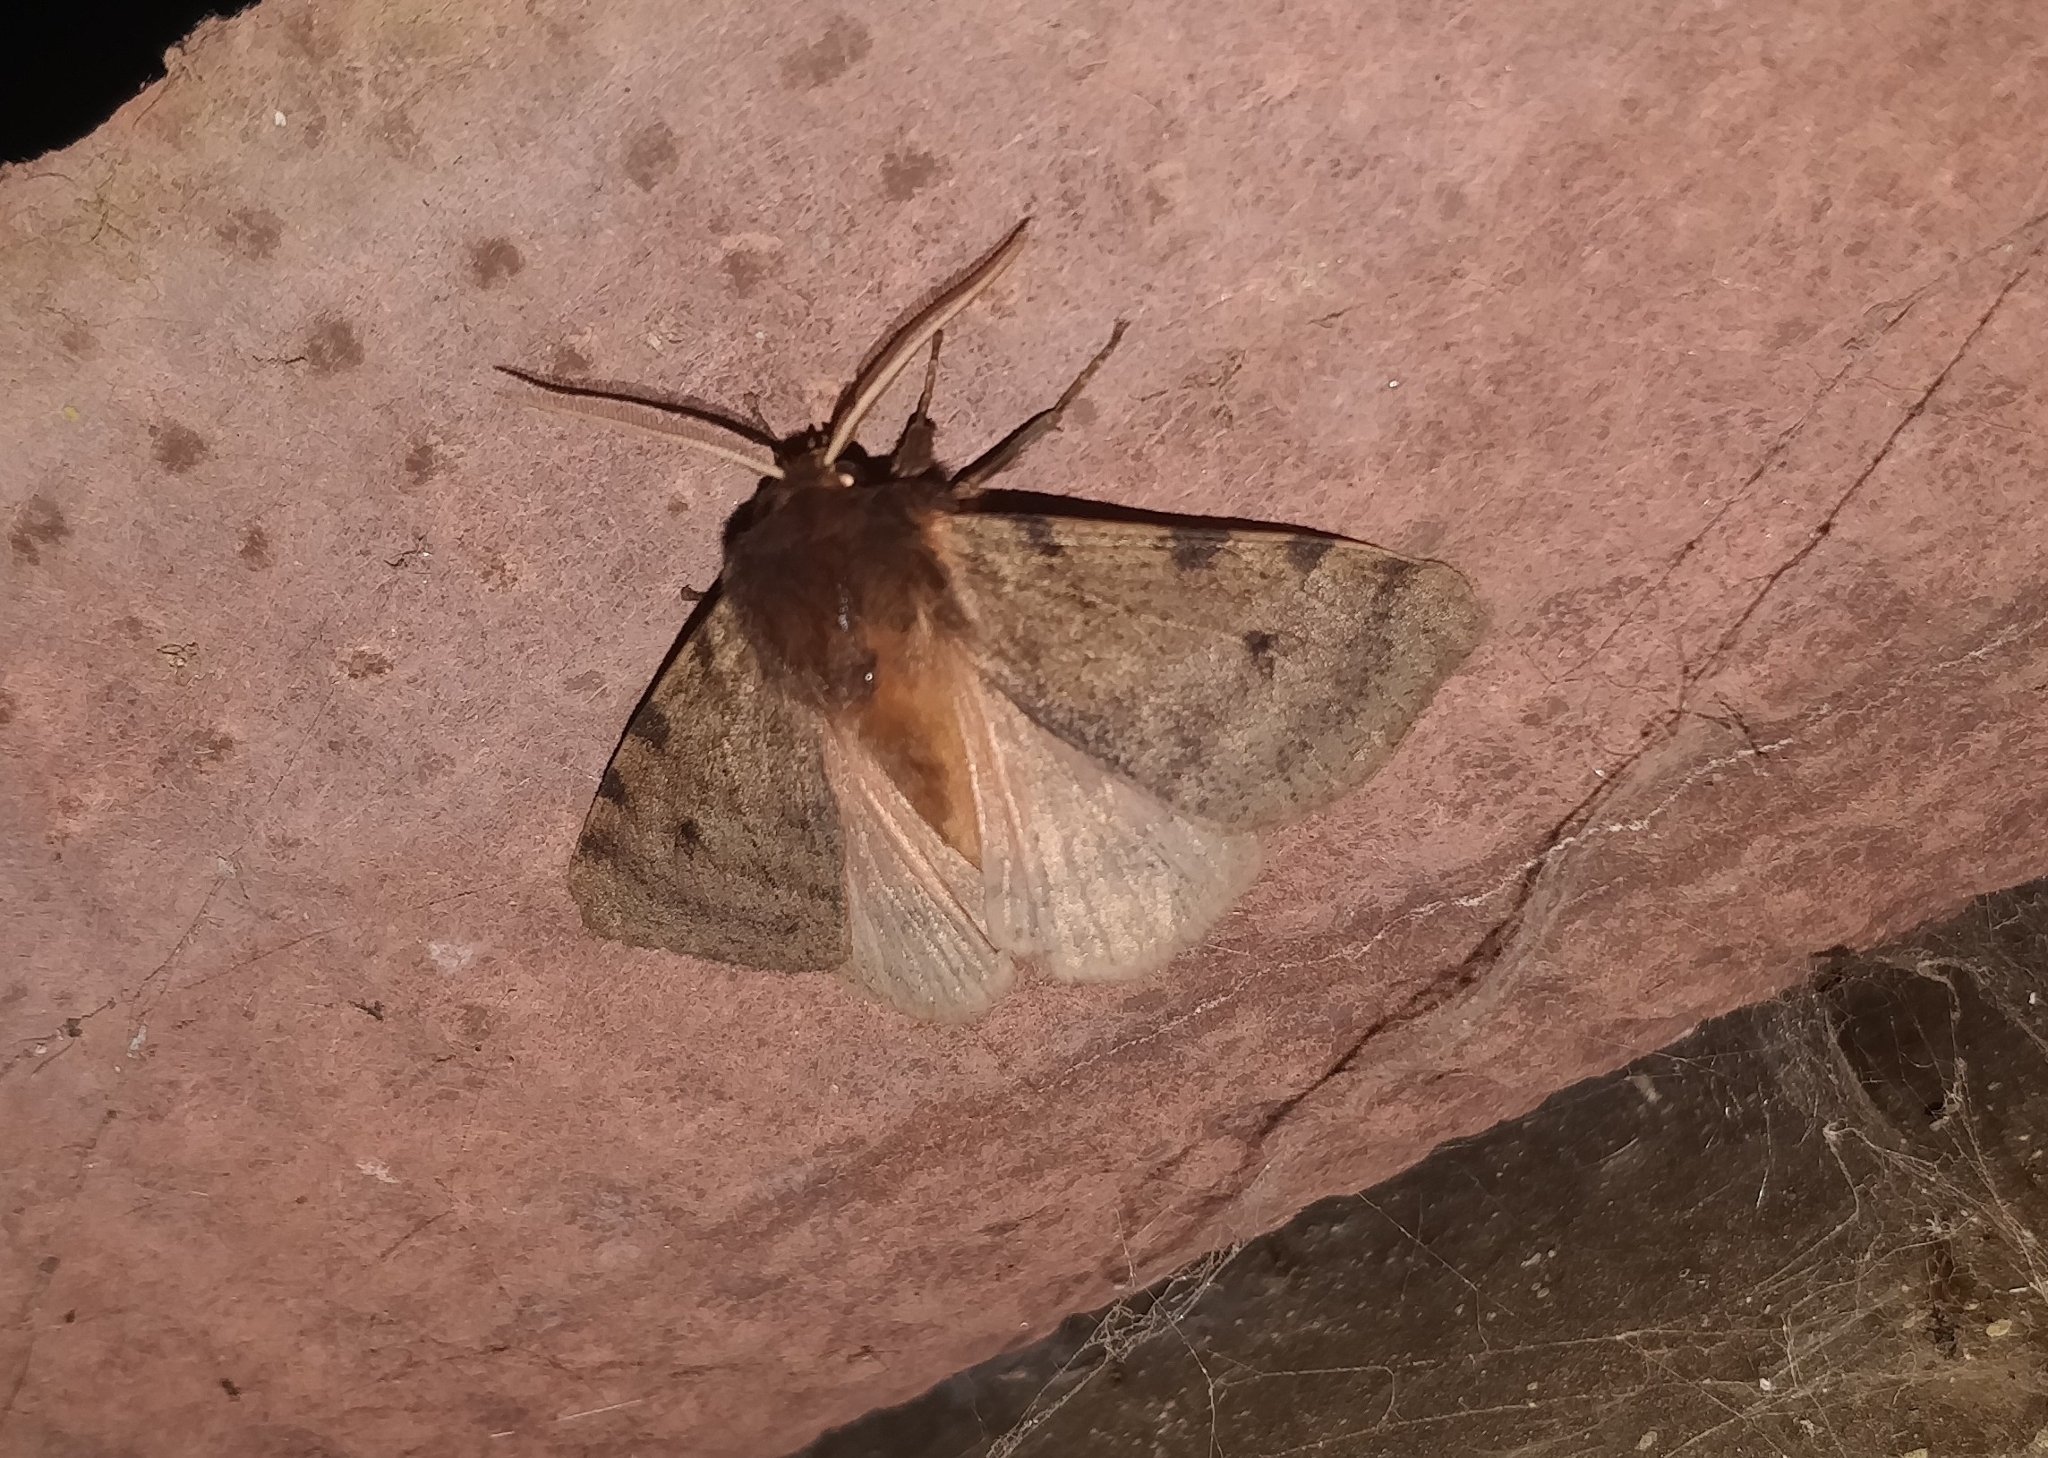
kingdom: Animalia
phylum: Arthropoda
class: Insecta
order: Lepidoptera
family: Erebidae
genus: Canararctia
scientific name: Canararctia rufescens
